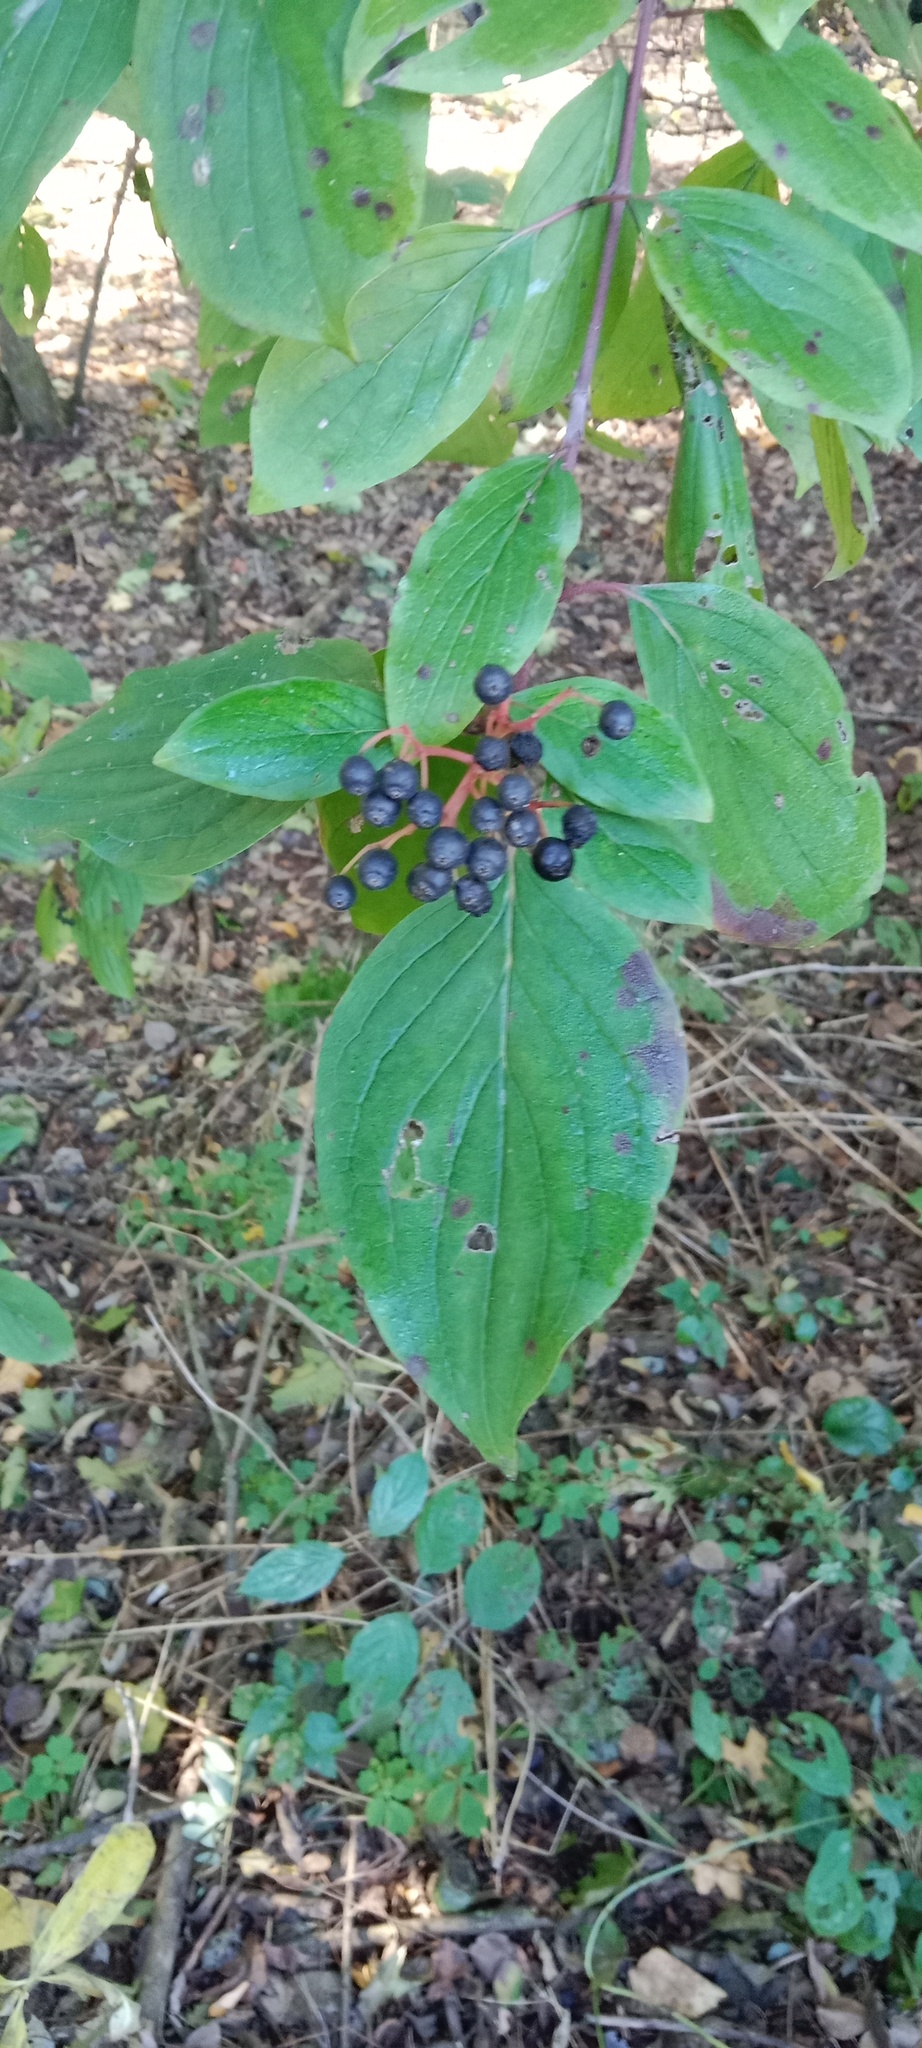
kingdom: Plantae
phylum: Tracheophyta
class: Magnoliopsida
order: Cornales
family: Cornaceae
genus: Cornus
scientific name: Cornus sanguinea
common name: Dogwood
